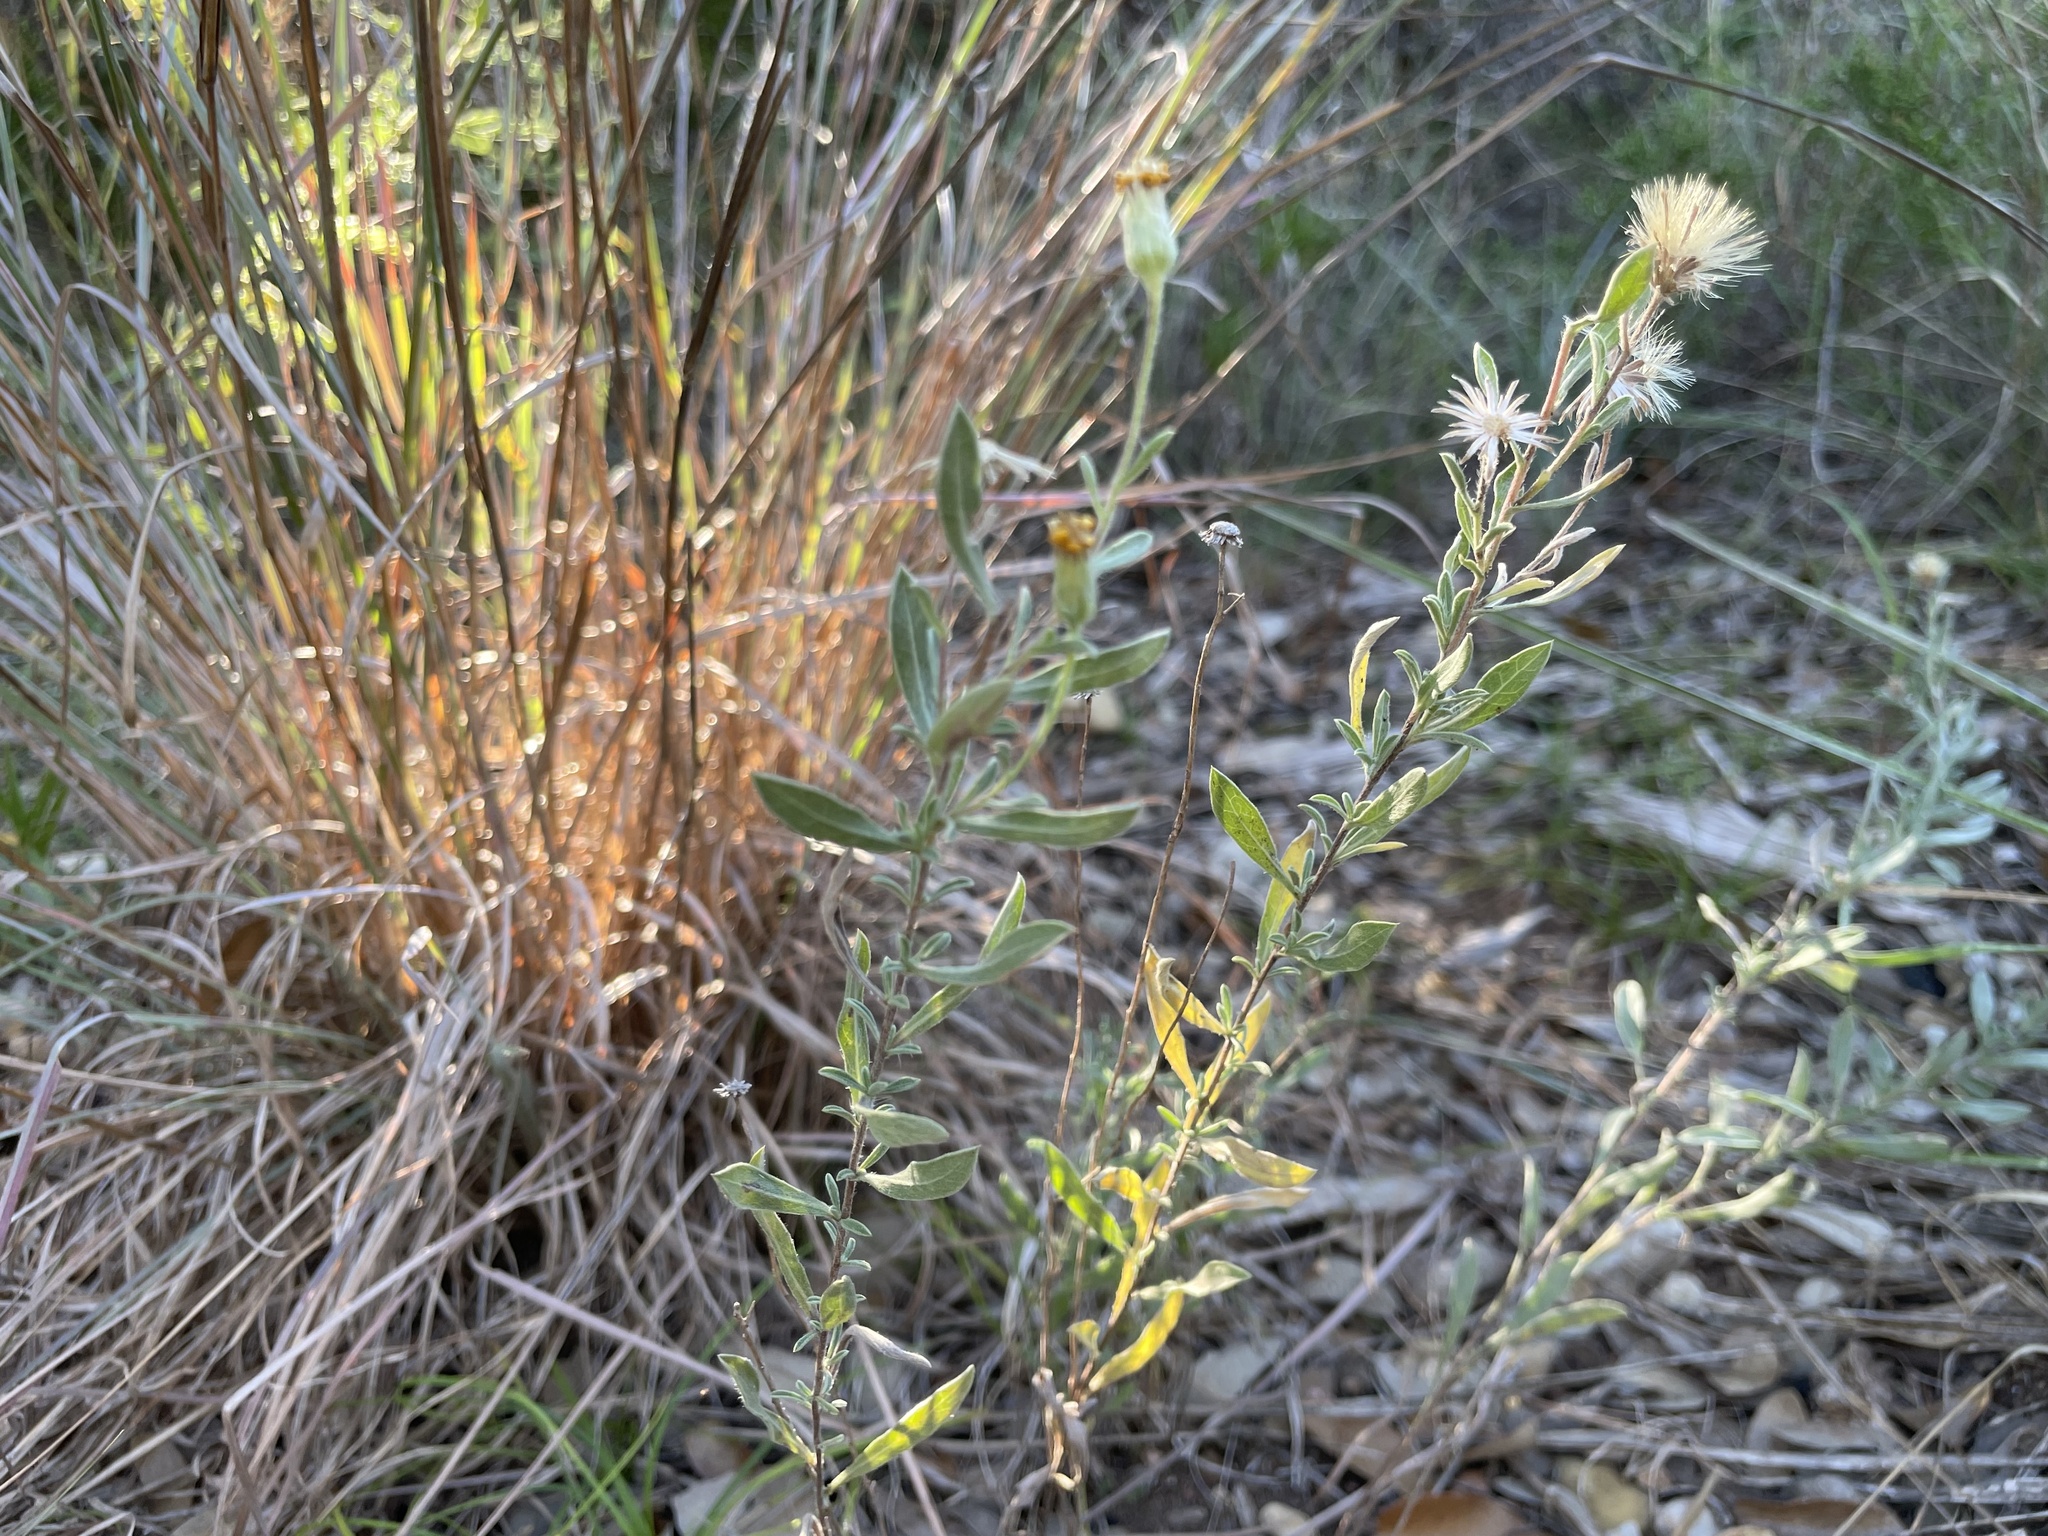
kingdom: Plantae
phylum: Tracheophyta
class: Magnoliopsida
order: Asterales
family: Asteraceae
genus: Heterotheca
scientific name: Heterotheca canescens
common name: Hoary golden-aster
